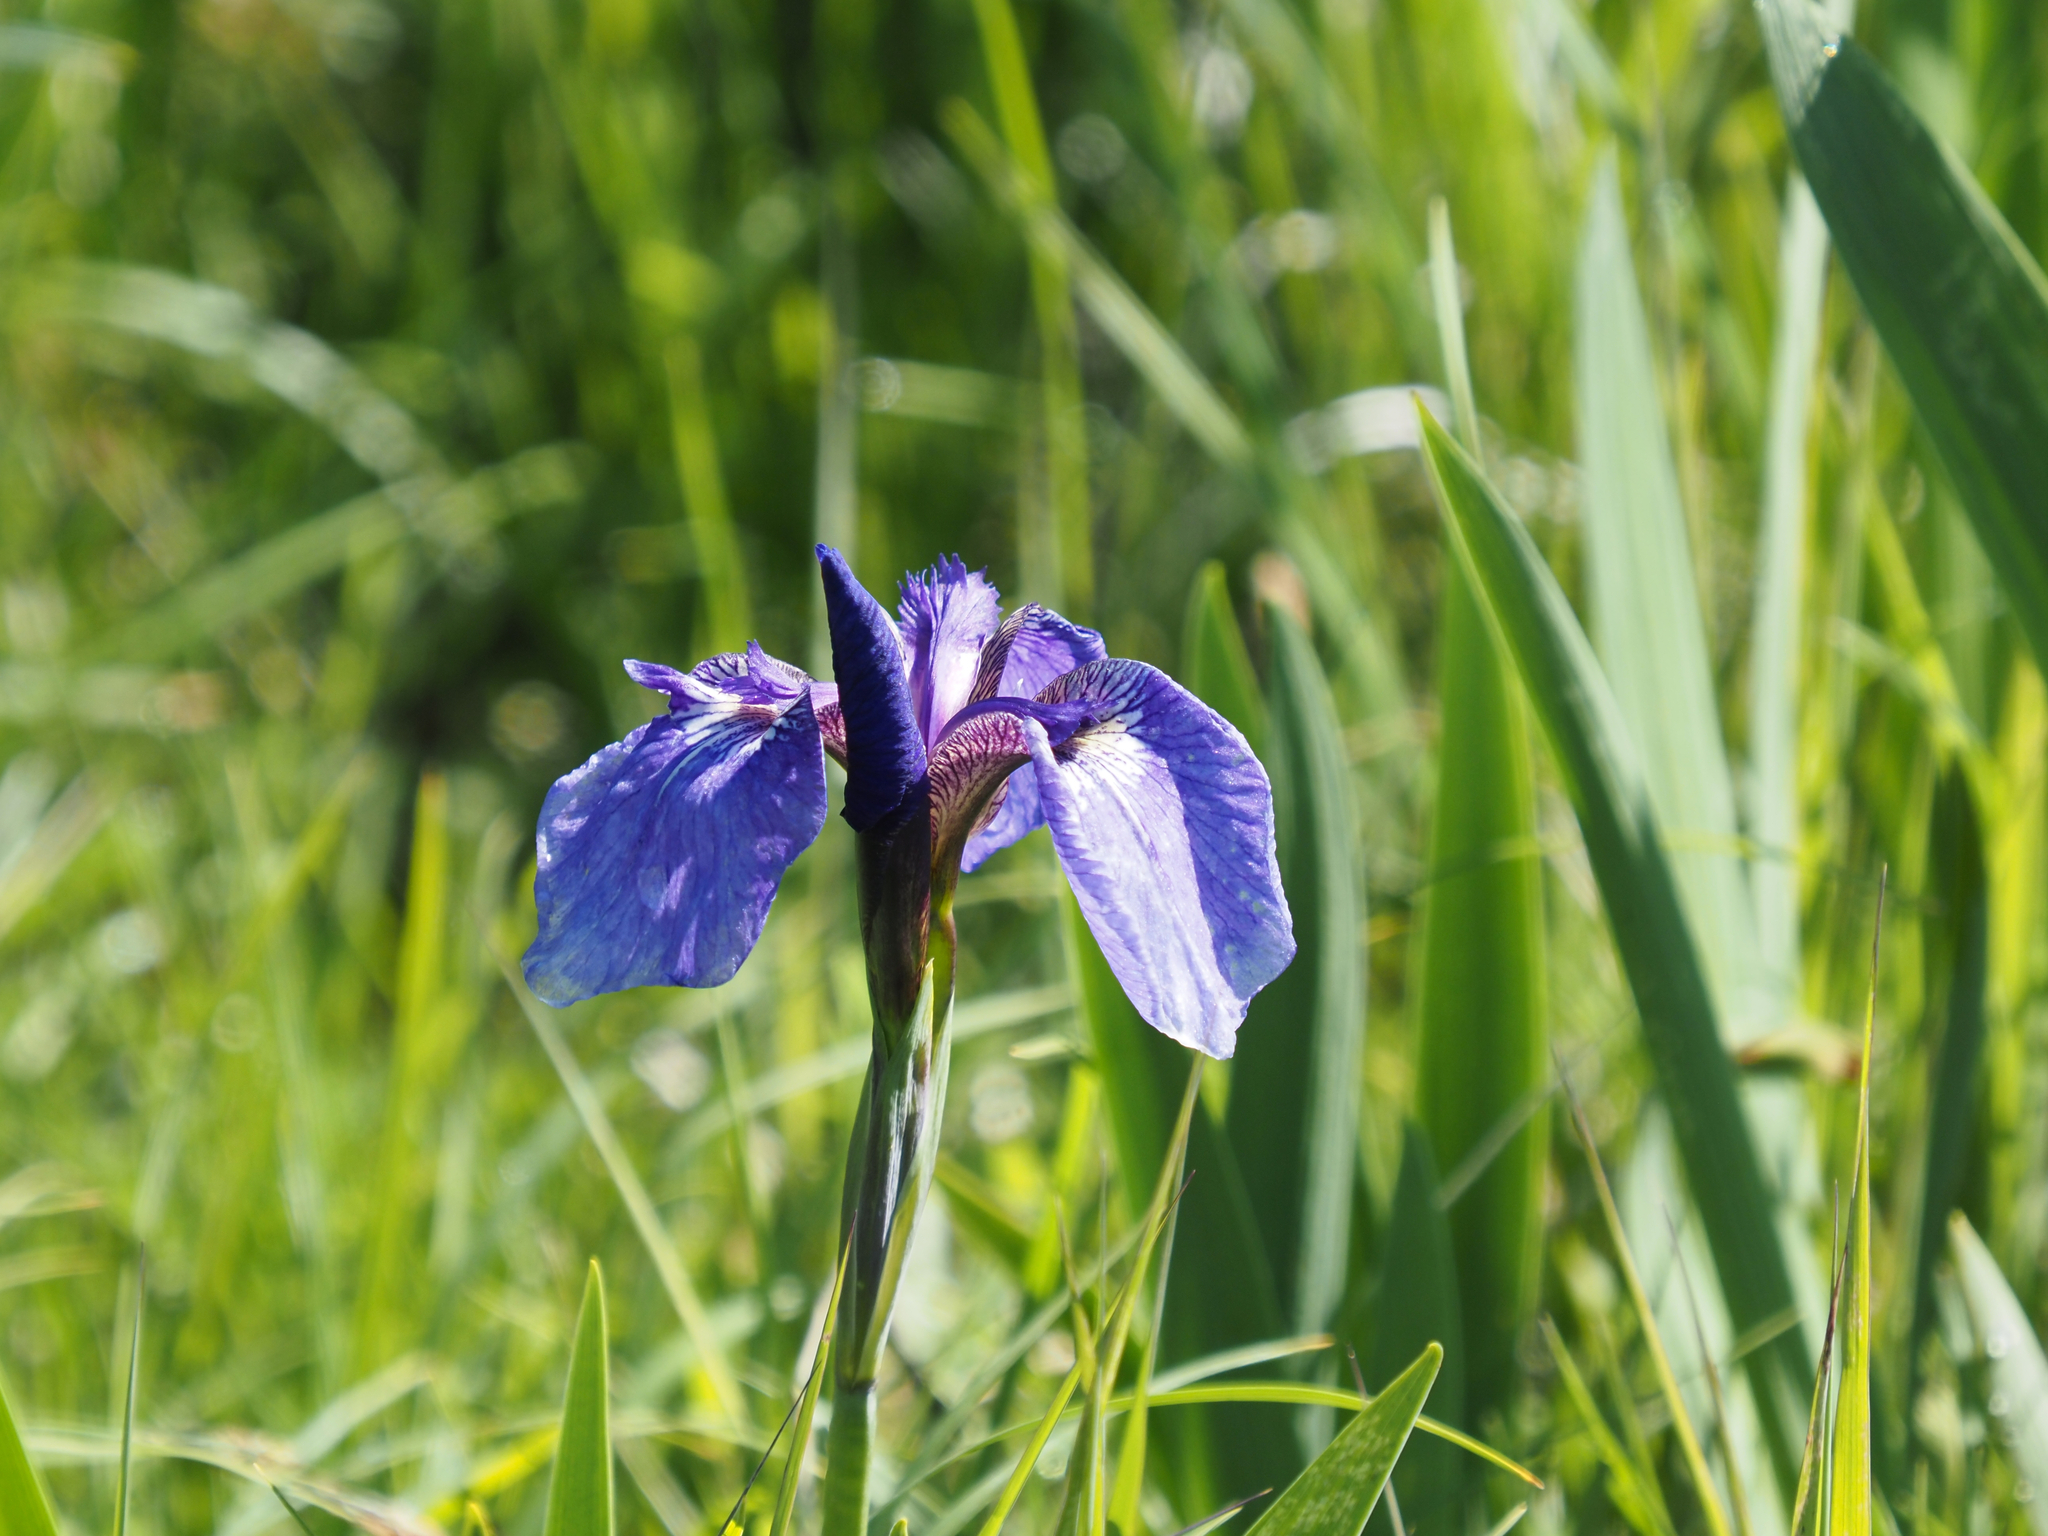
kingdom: Plantae
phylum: Tracheophyta
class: Liliopsida
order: Asparagales
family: Iridaceae
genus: Iris
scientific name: Iris setosa
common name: Arctic blue flag
